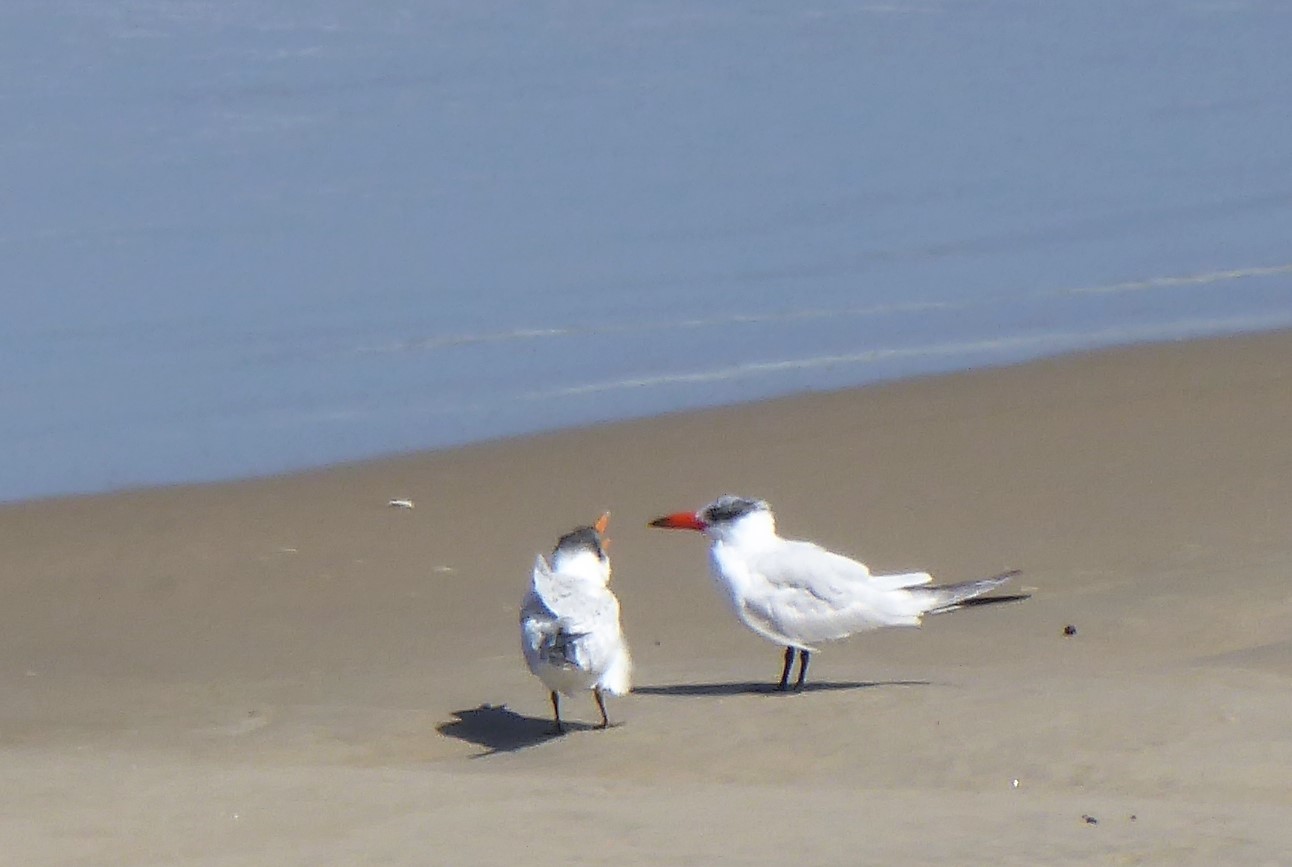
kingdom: Animalia
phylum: Chordata
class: Aves
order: Charadriiformes
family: Laridae
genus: Hydroprogne
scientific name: Hydroprogne caspia
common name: Caspian tern
